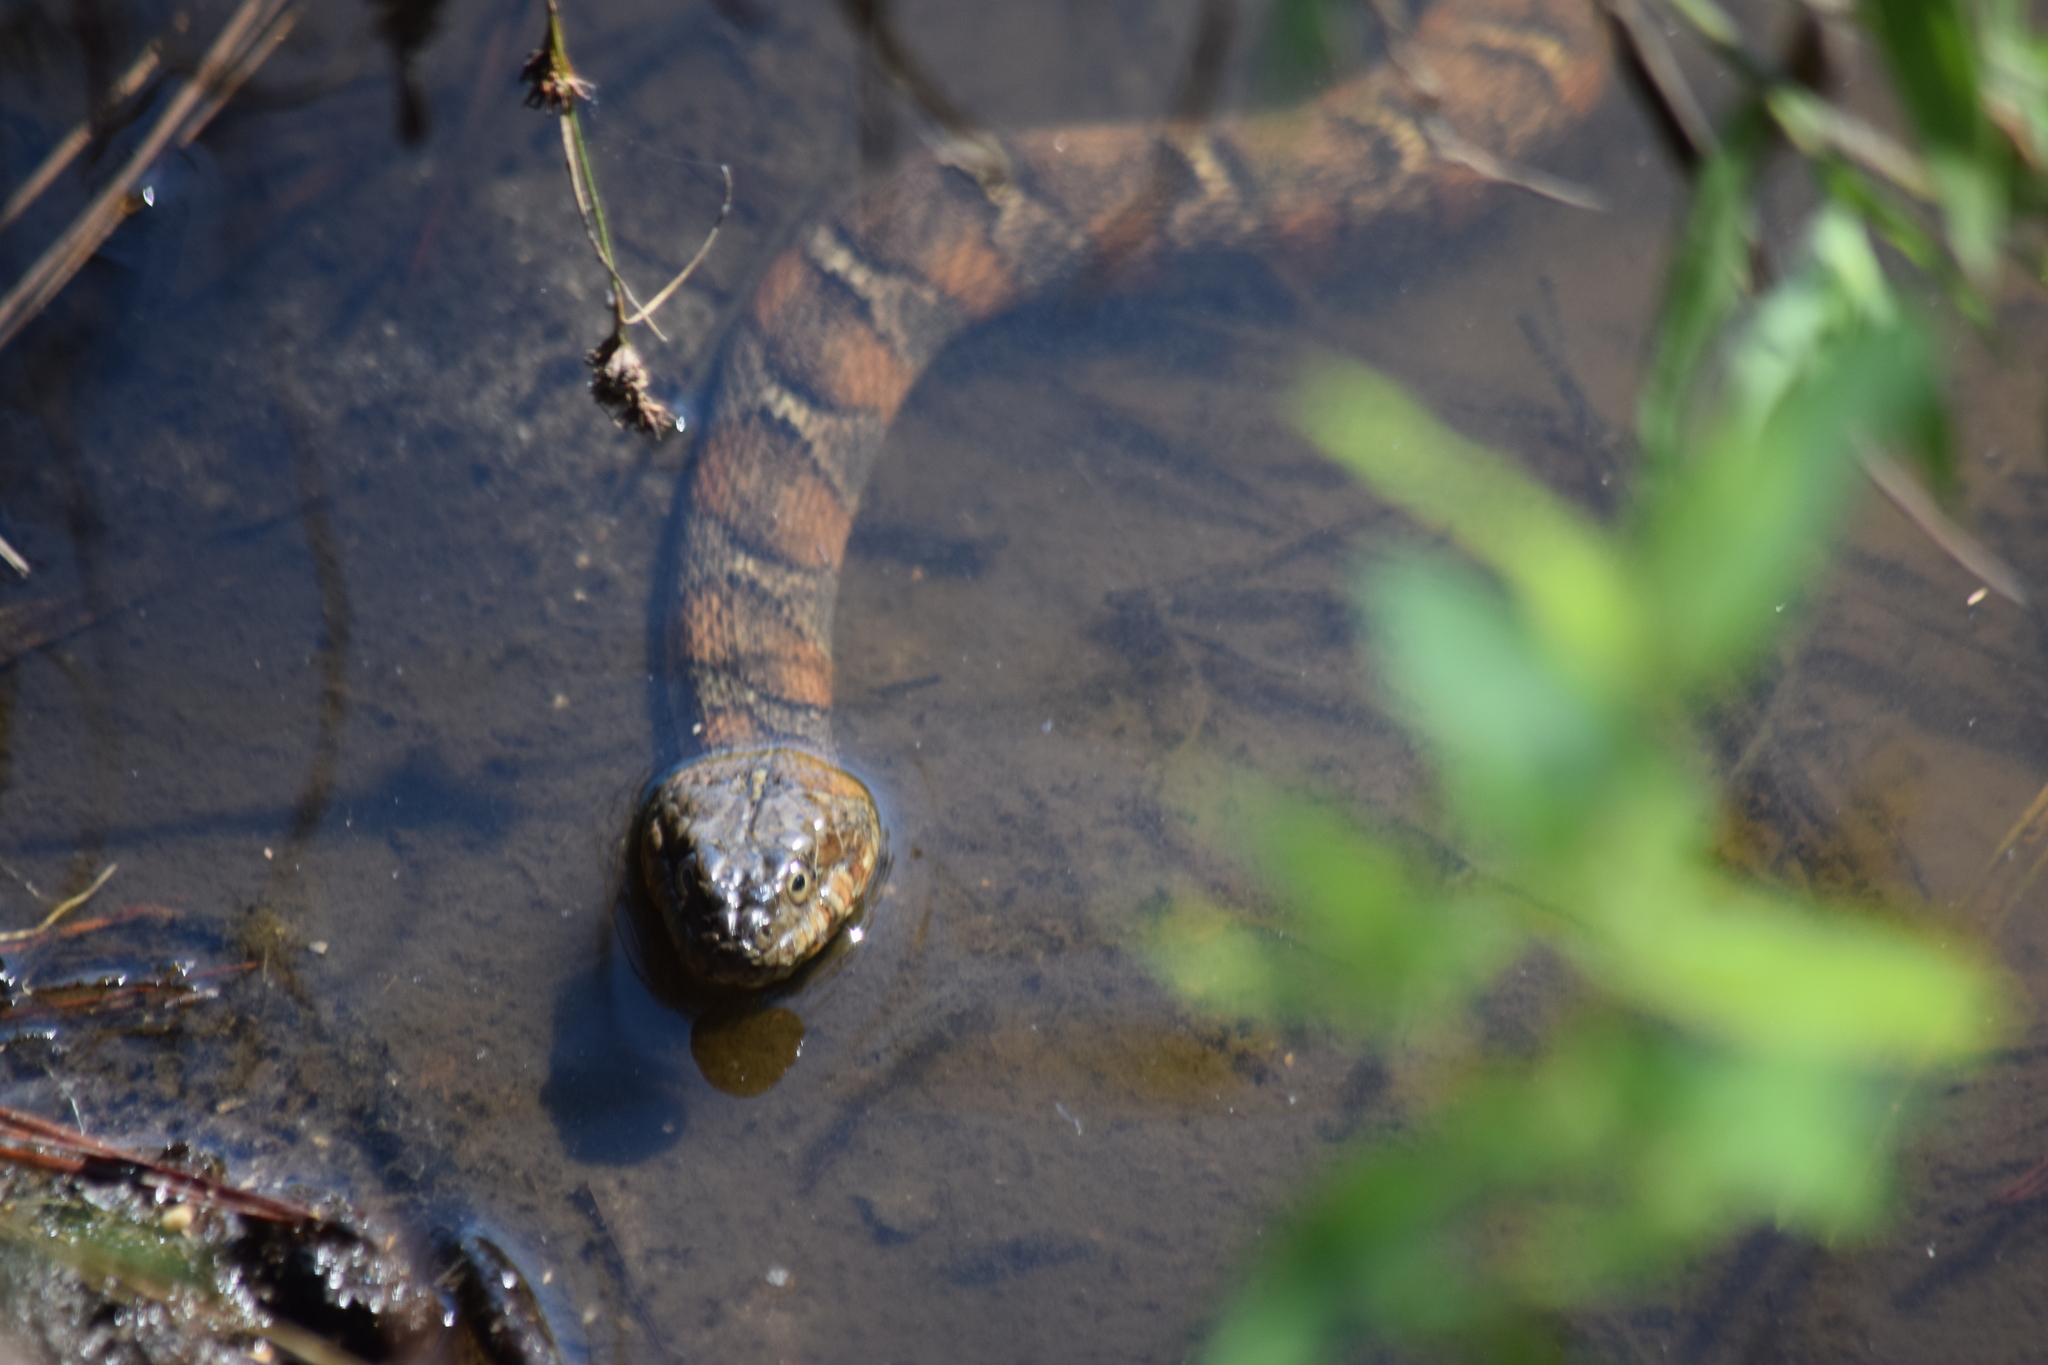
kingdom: Animalia
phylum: Chordata
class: Squamata
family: Colubridae
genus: Nerodia
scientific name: Nerodia sipedon
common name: Northern water snake
